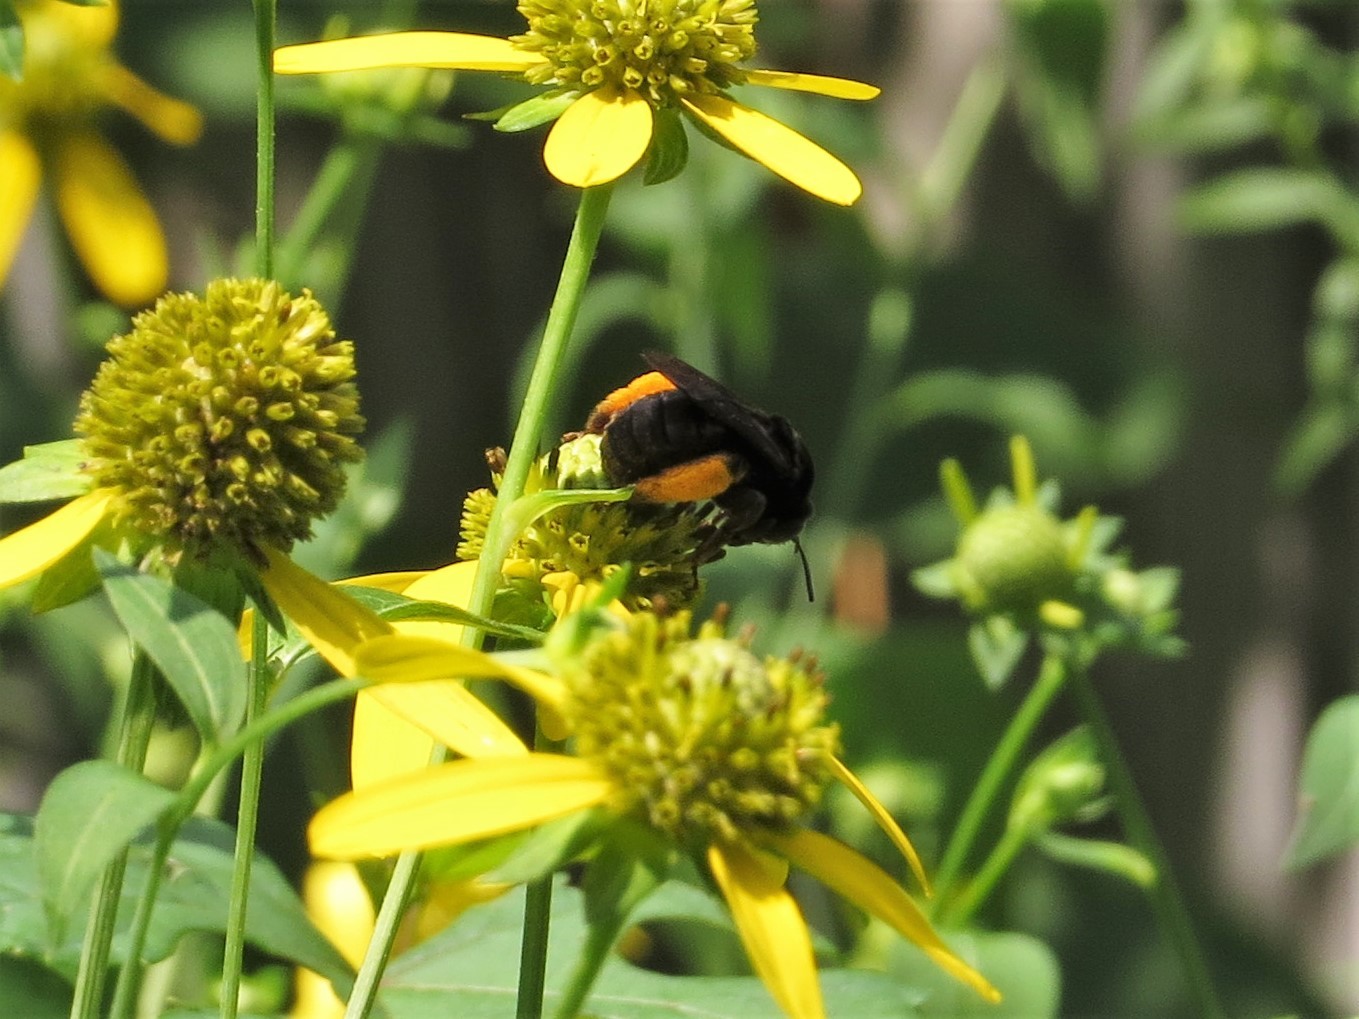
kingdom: Animalia
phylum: Arthropoda
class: Insecta
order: Hymenoptera
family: Apidae
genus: Melissodes
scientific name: Melissodes bimaculatus
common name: Two-spotted long-horned bee
